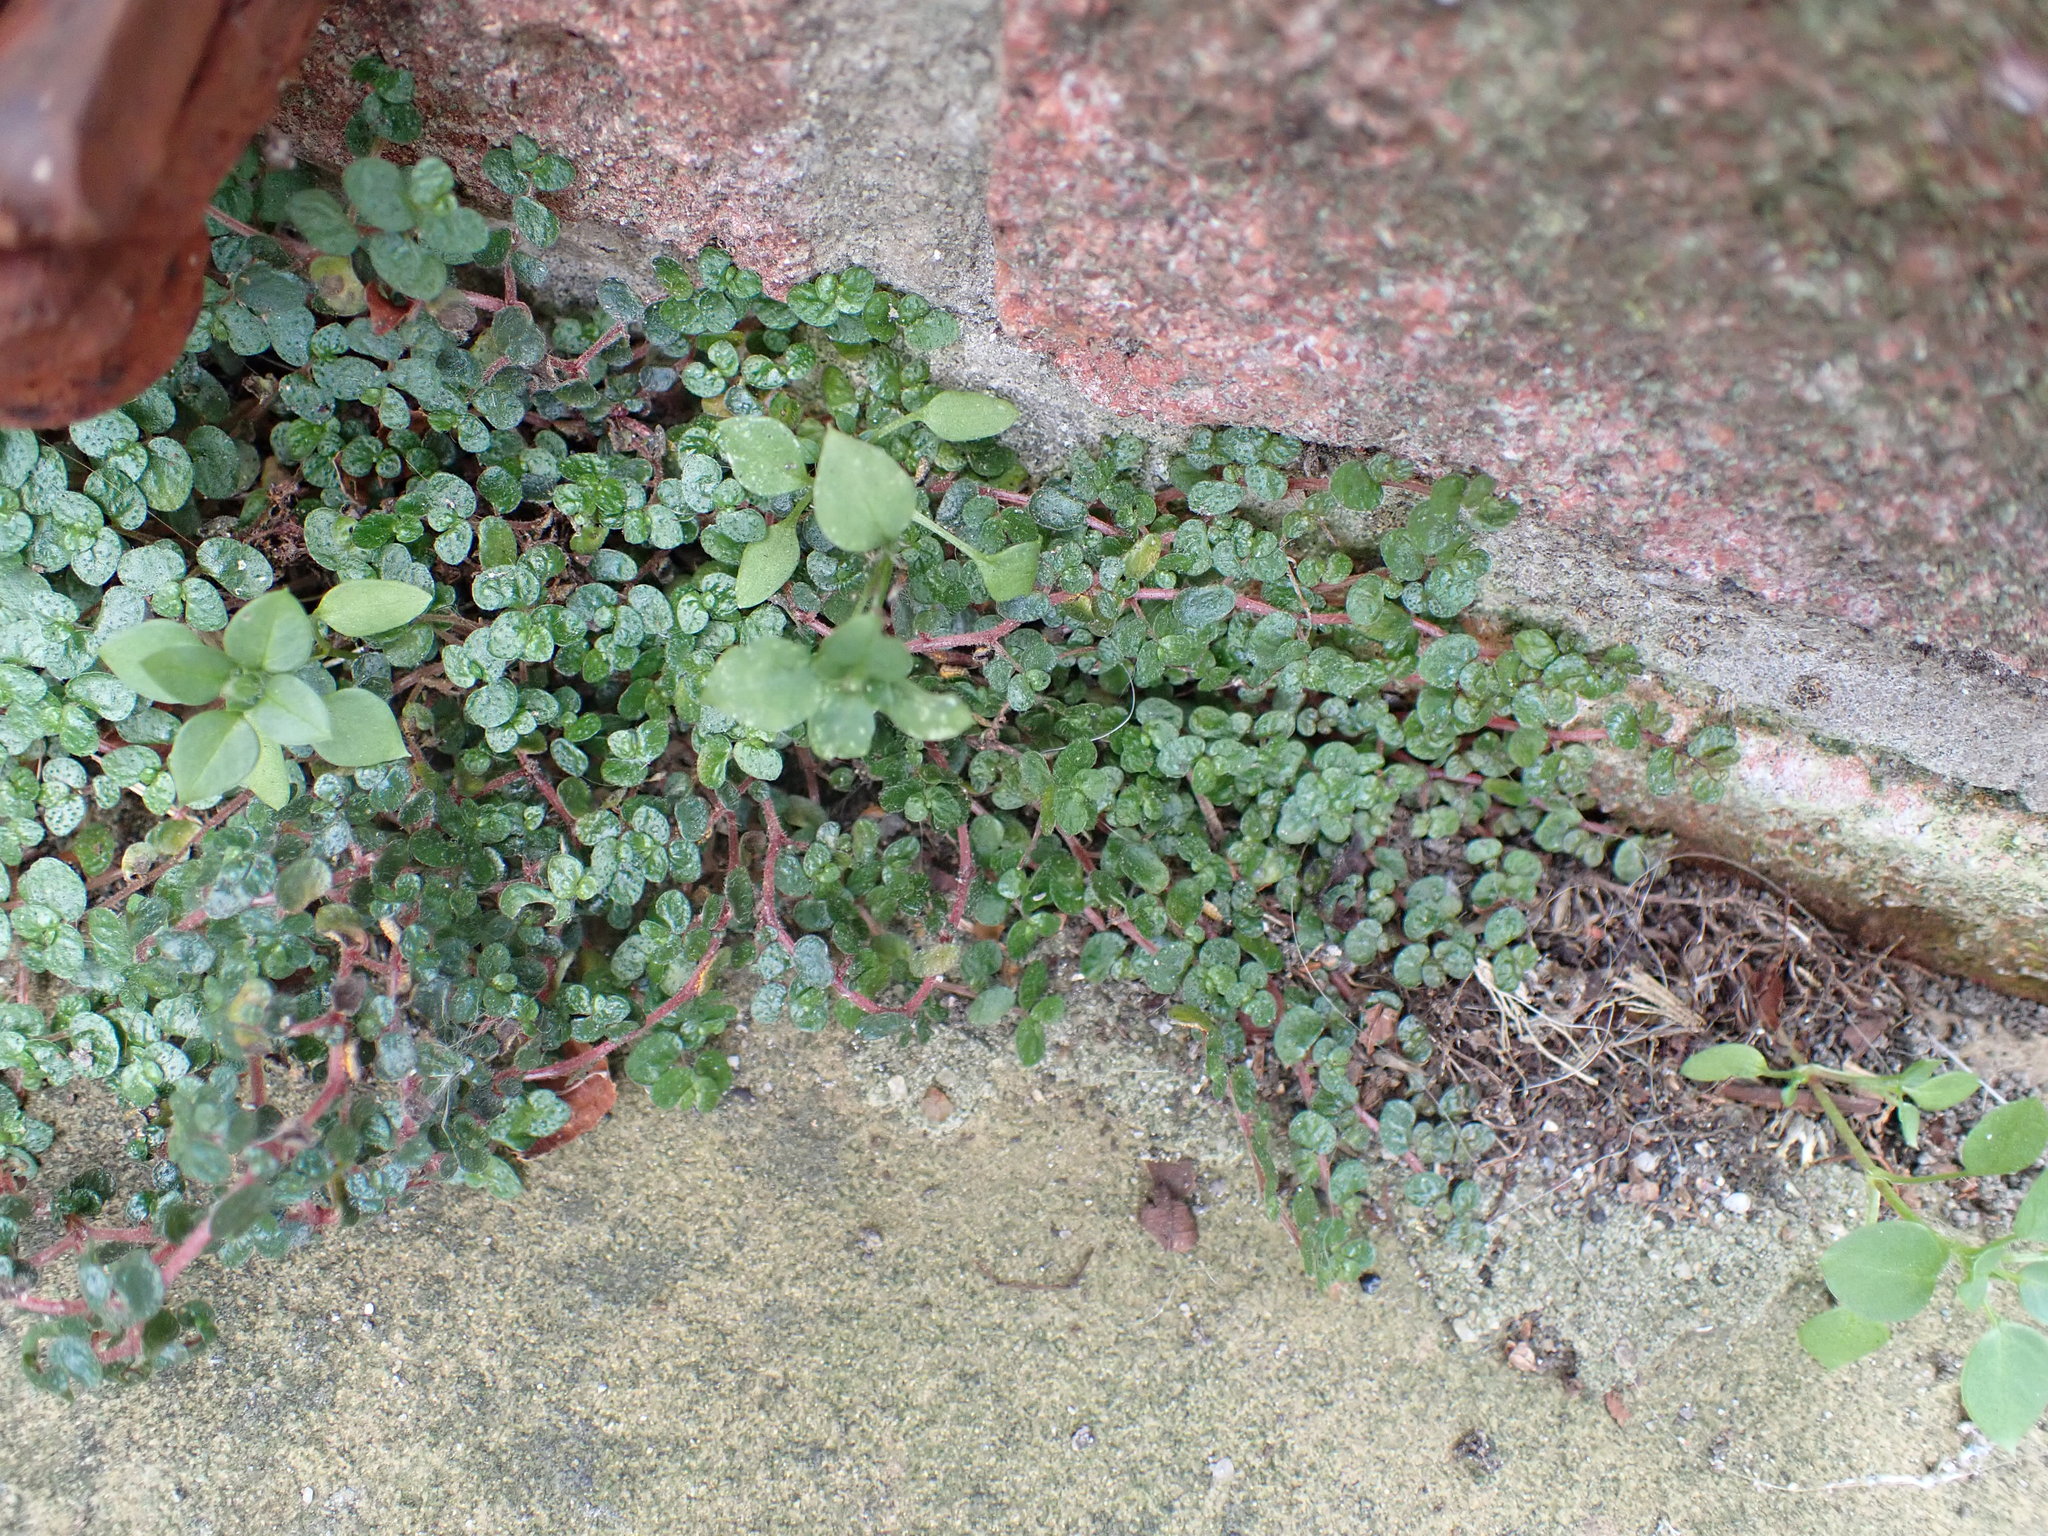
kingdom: Plantae
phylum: Tracheophyta
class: Magnoliopsida
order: Rosales
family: Urticaceae
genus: Soleirolia
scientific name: Soleirolia soleirolii
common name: Mind-your-own-business
